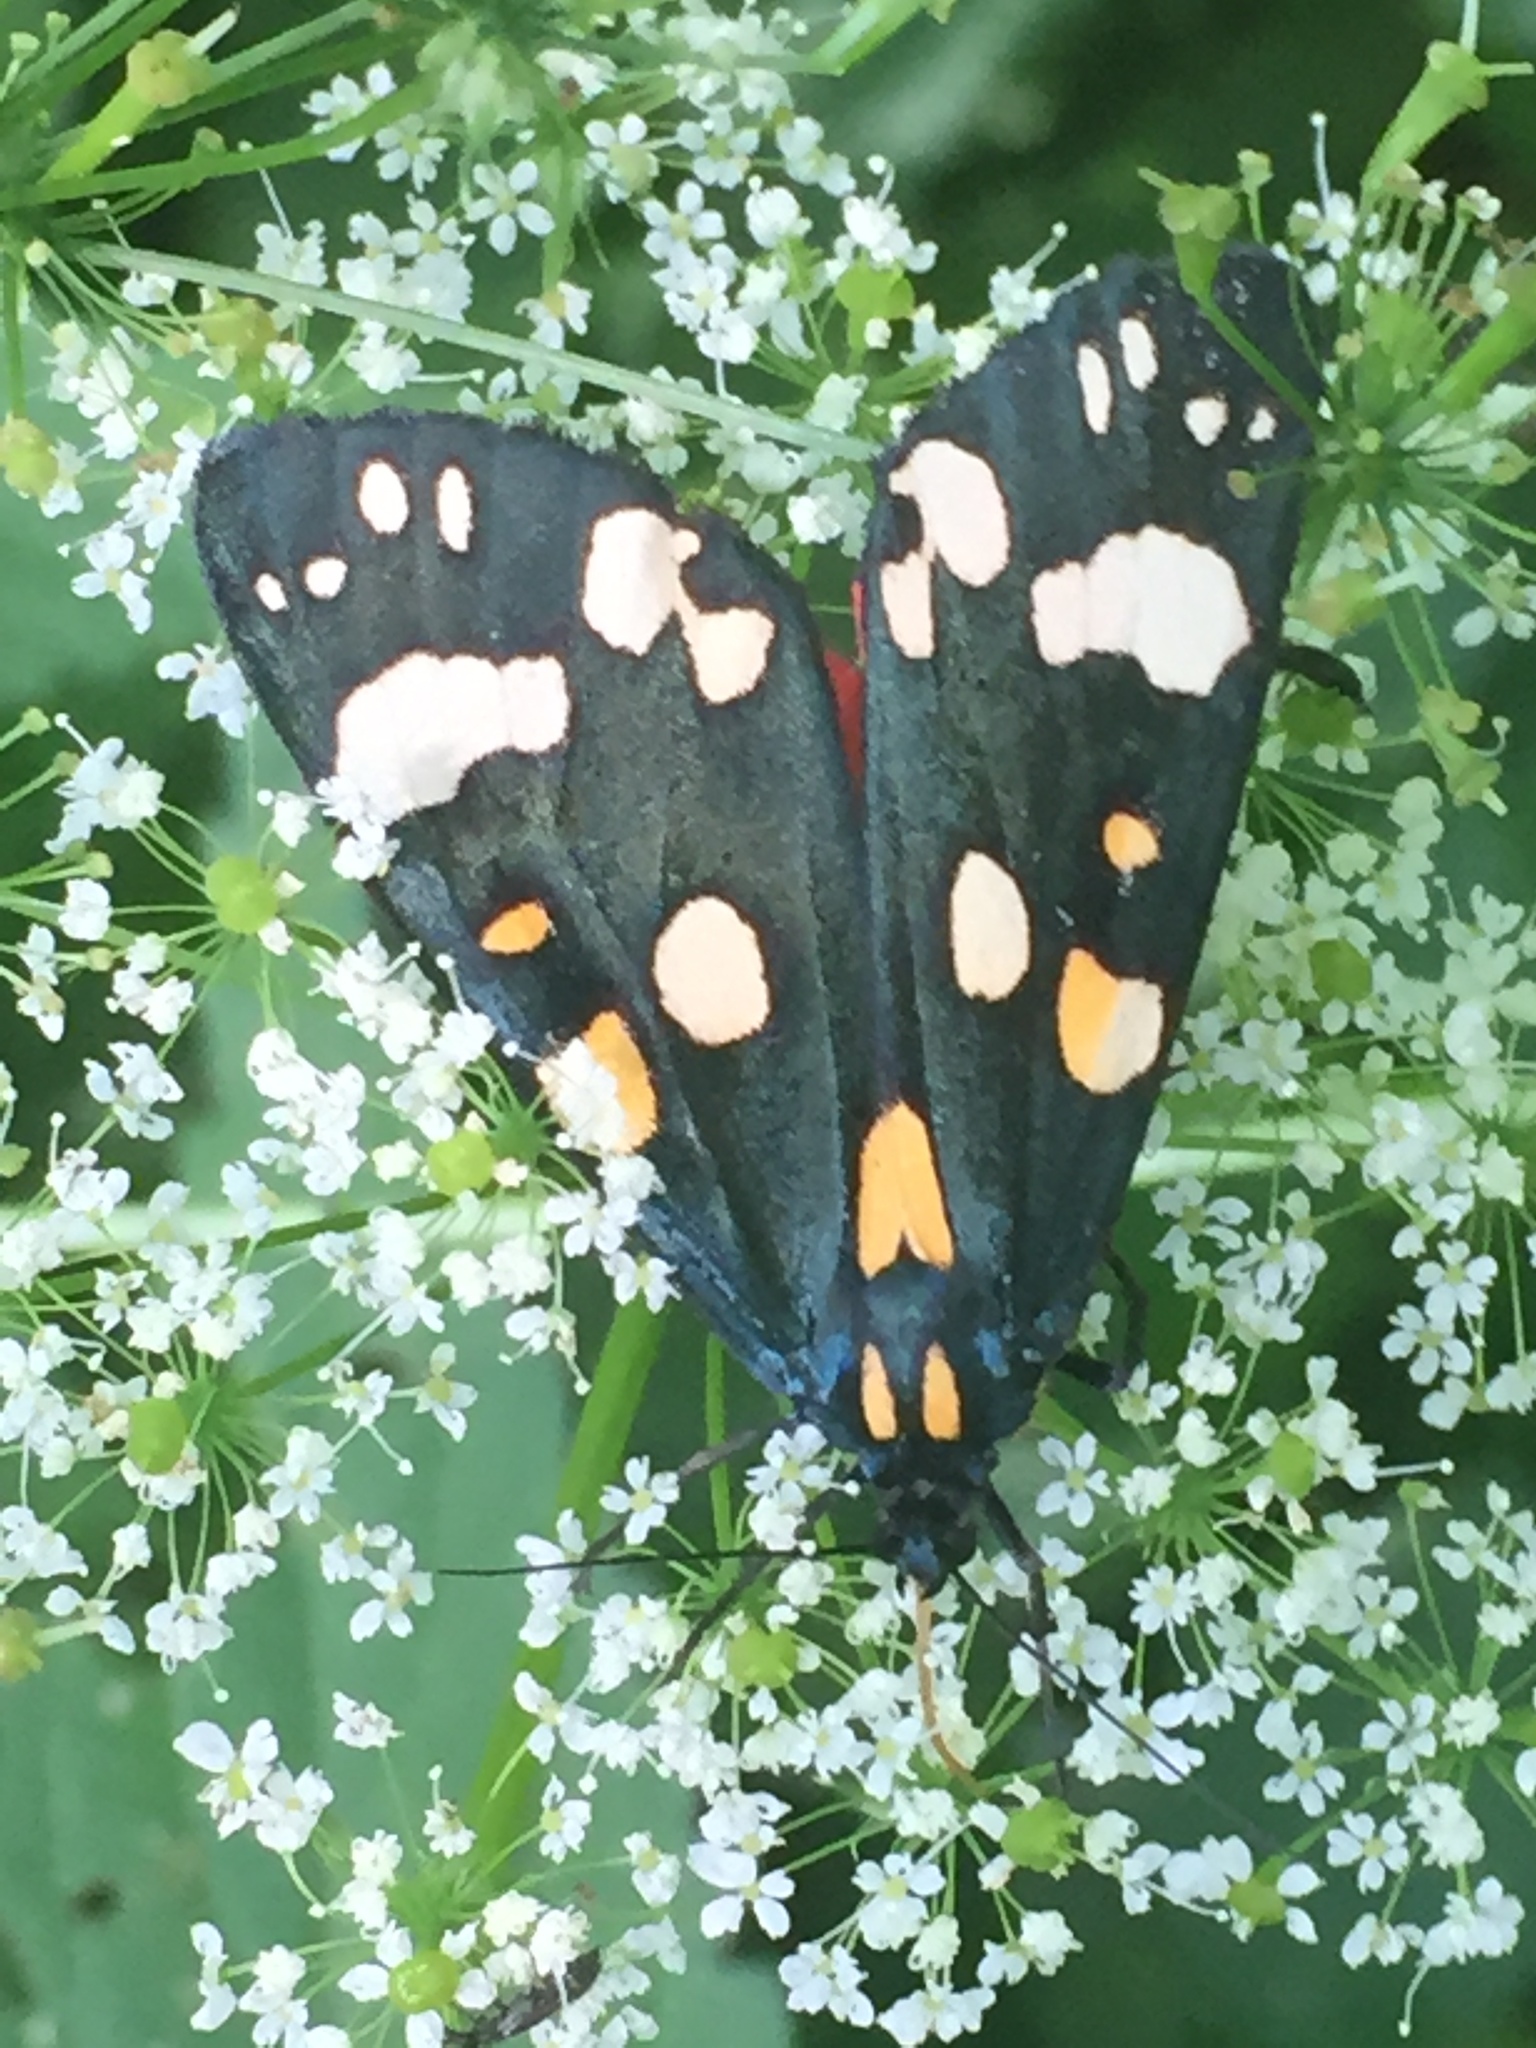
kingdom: Animalia
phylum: Arthropoda
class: Insecta
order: Lepidoptera
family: Erebidae
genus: Callimorpha
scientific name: Callimorpha dominula
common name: Scarlet tiger
